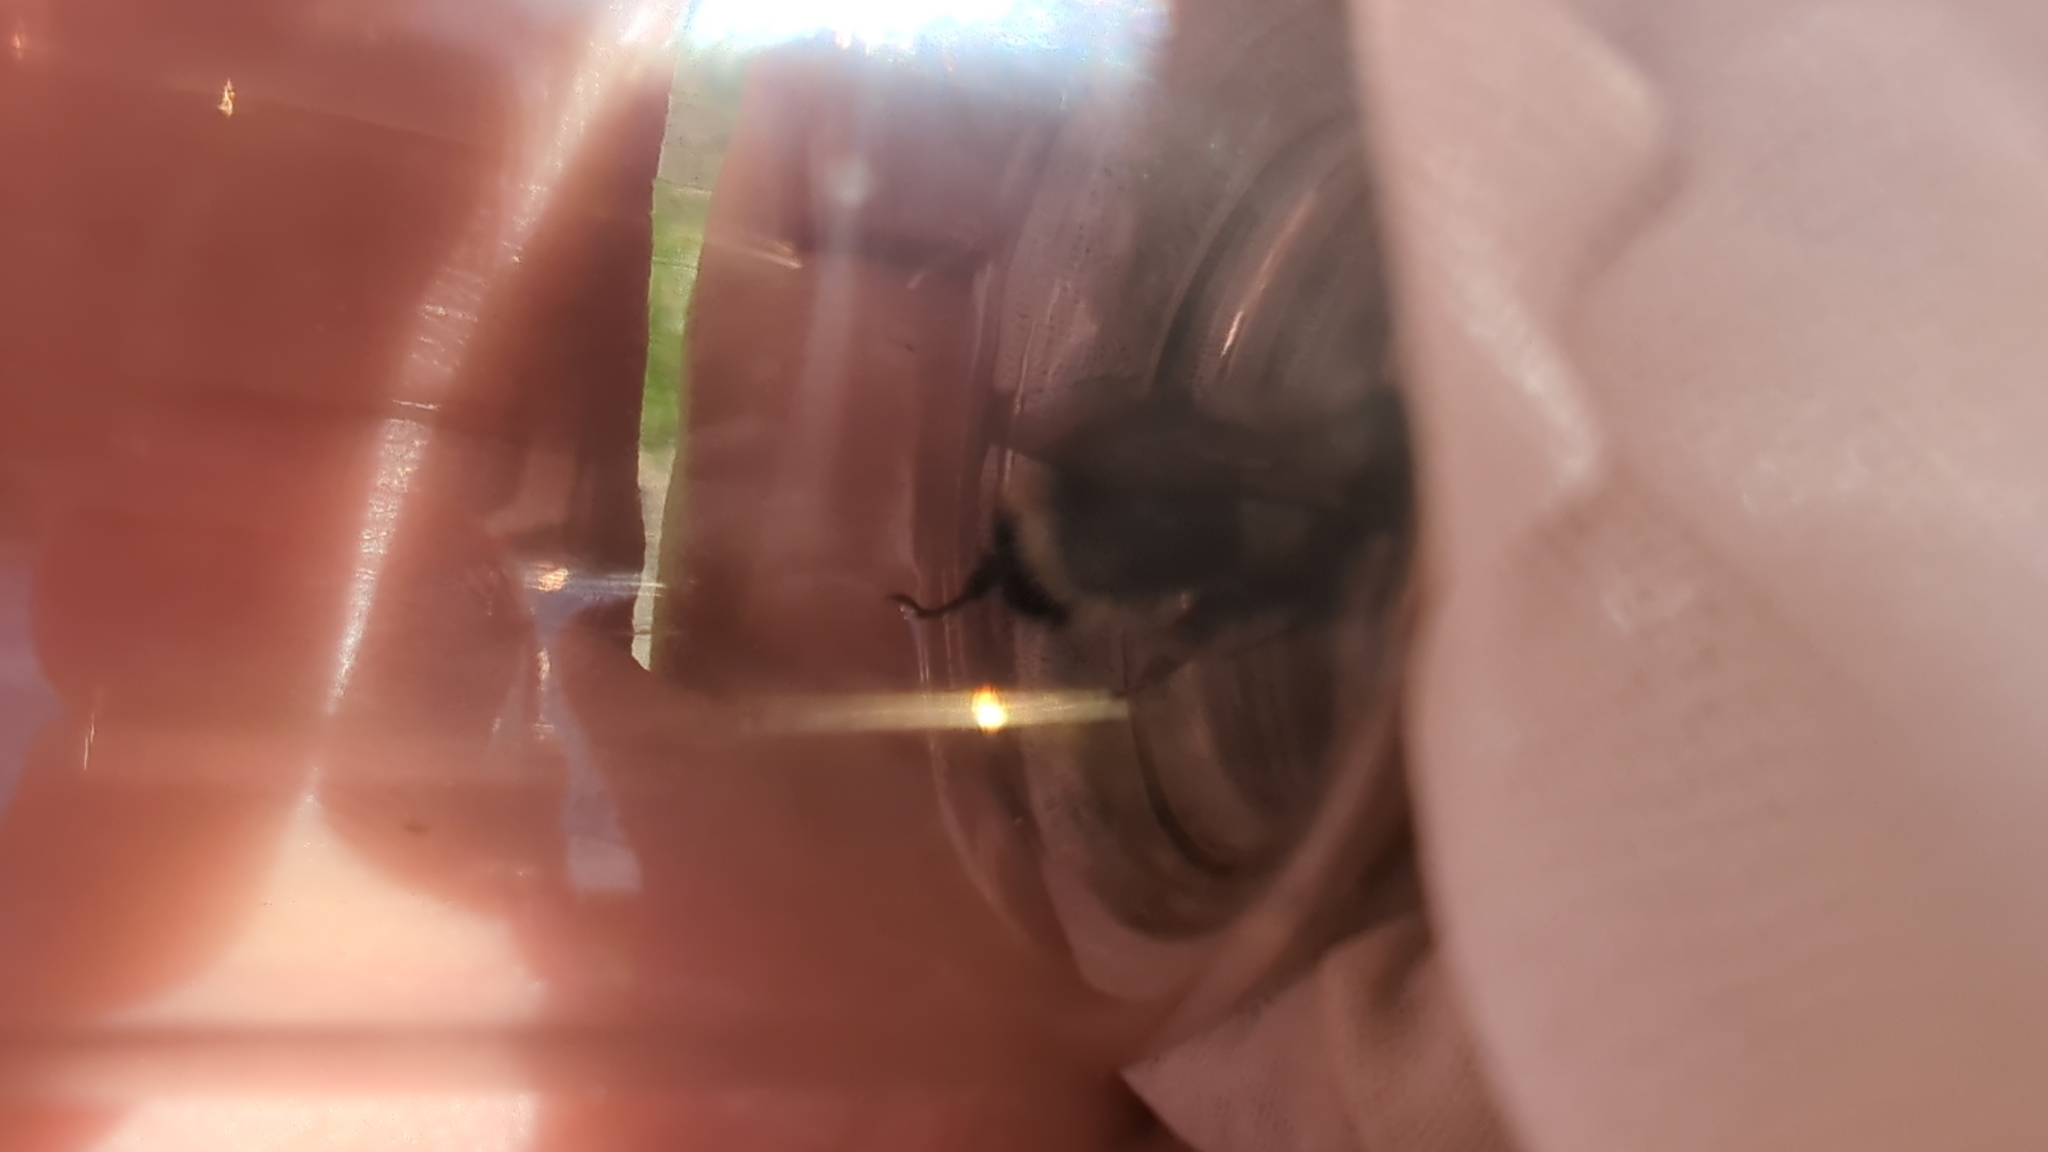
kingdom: Animalia
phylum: Arthropoda
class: Insecta
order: Hymenoptera
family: Apidae
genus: Bombus
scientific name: Bombus vancouverensis
